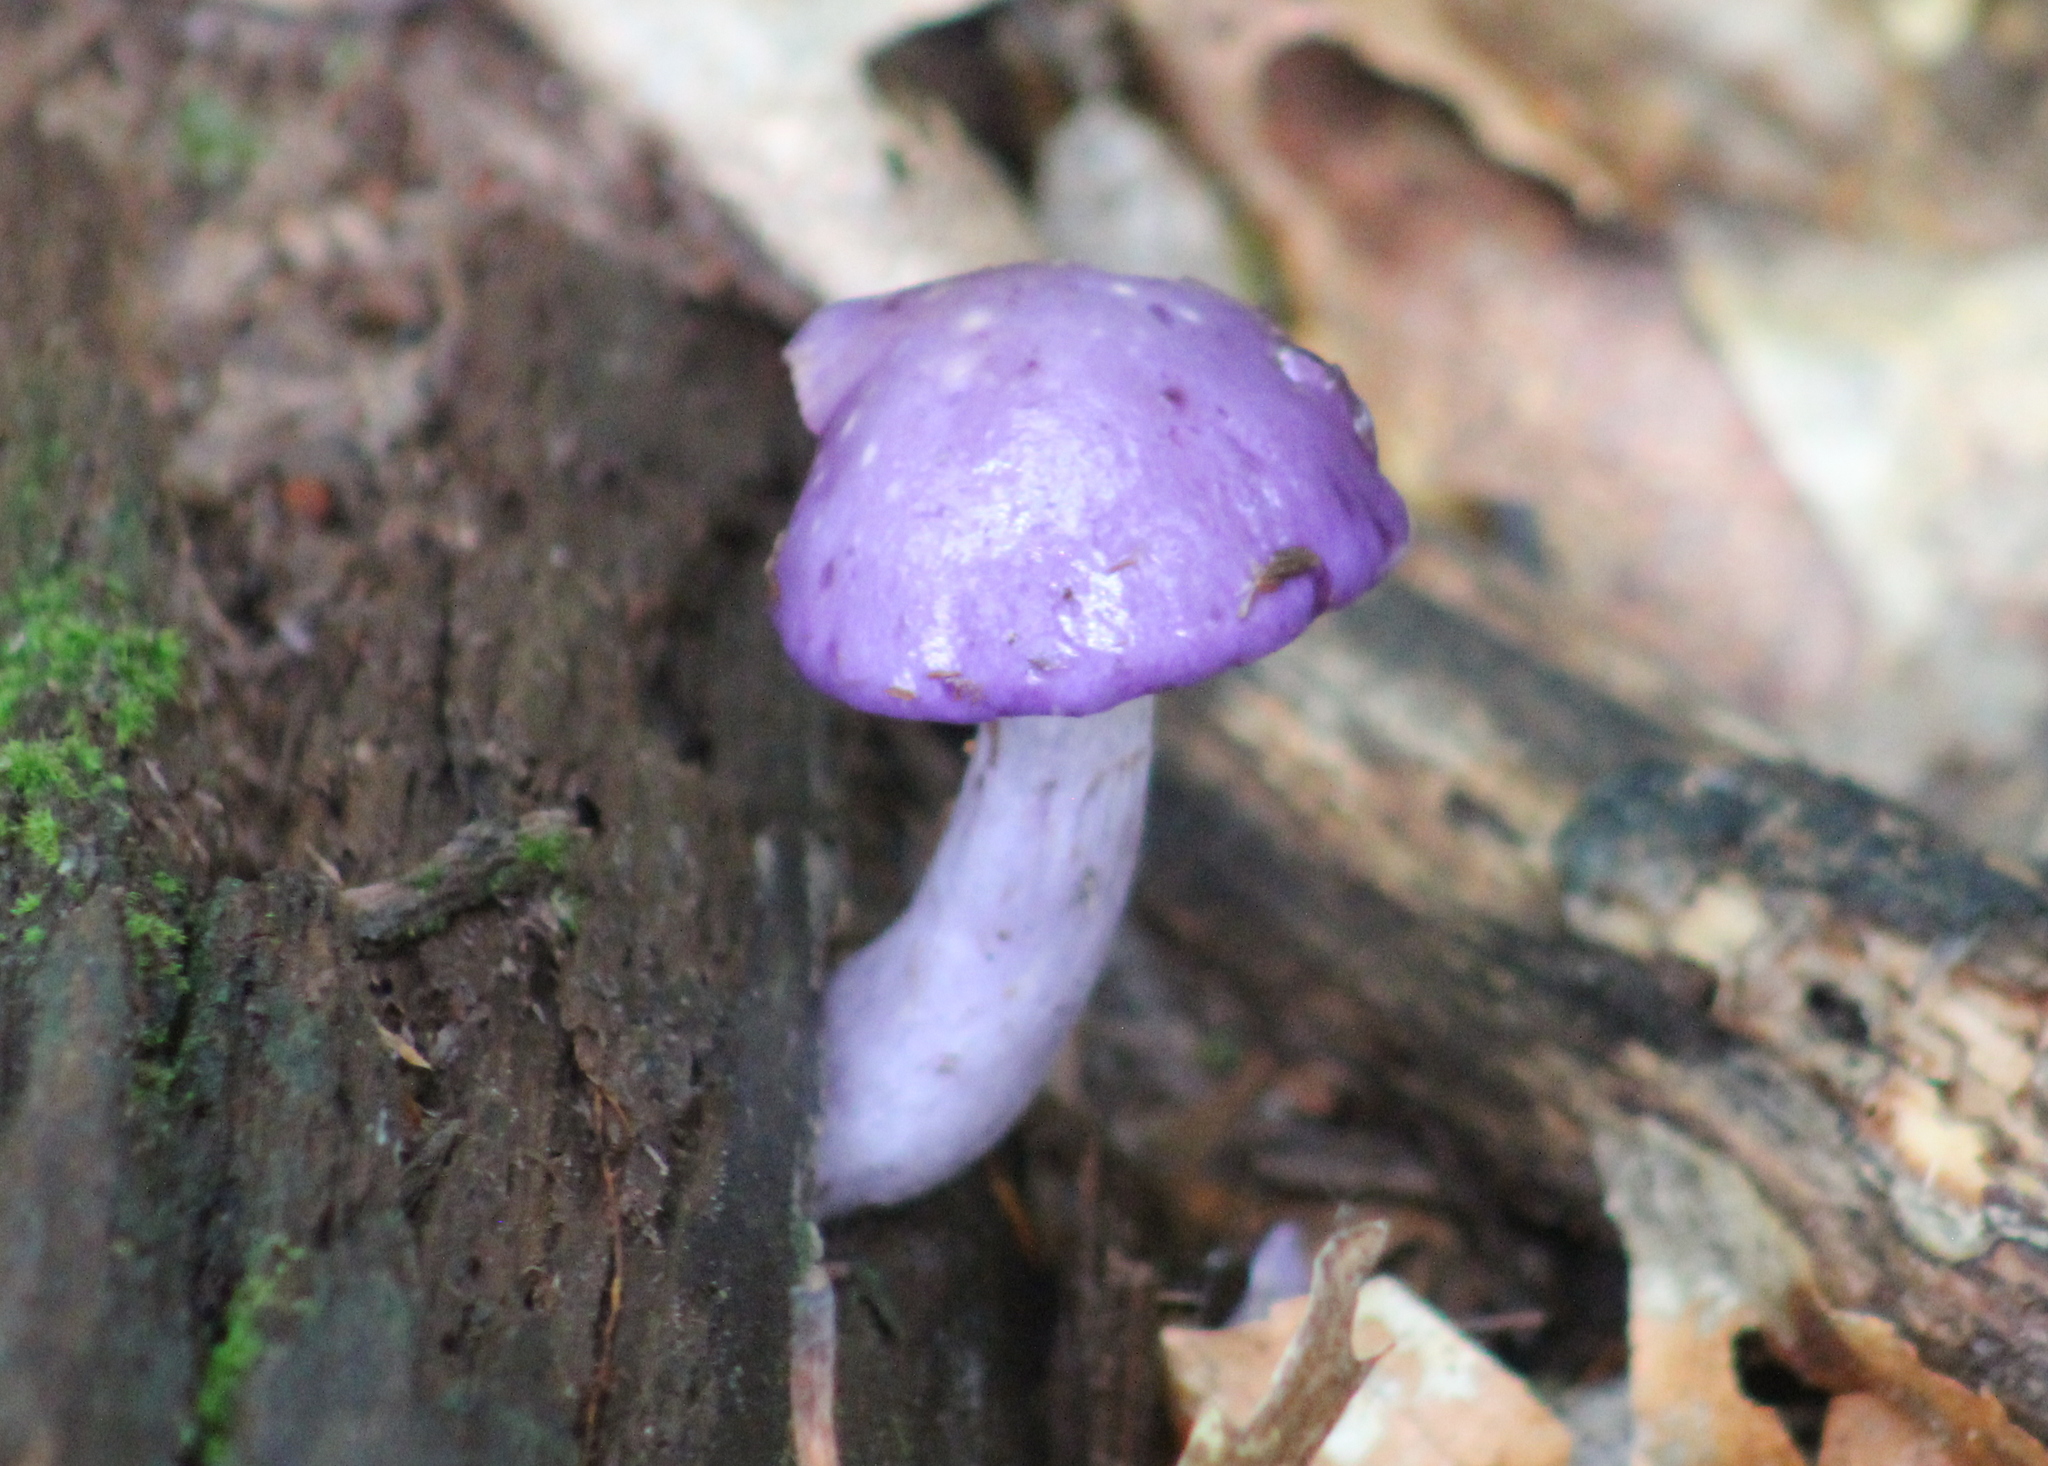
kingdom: Fungi
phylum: Basidiomycota
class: Agaricomycetes
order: Agaricales
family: Cortinariaceae
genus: Cortinarius
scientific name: Cortinarius iodes
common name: Viscid violet cort
